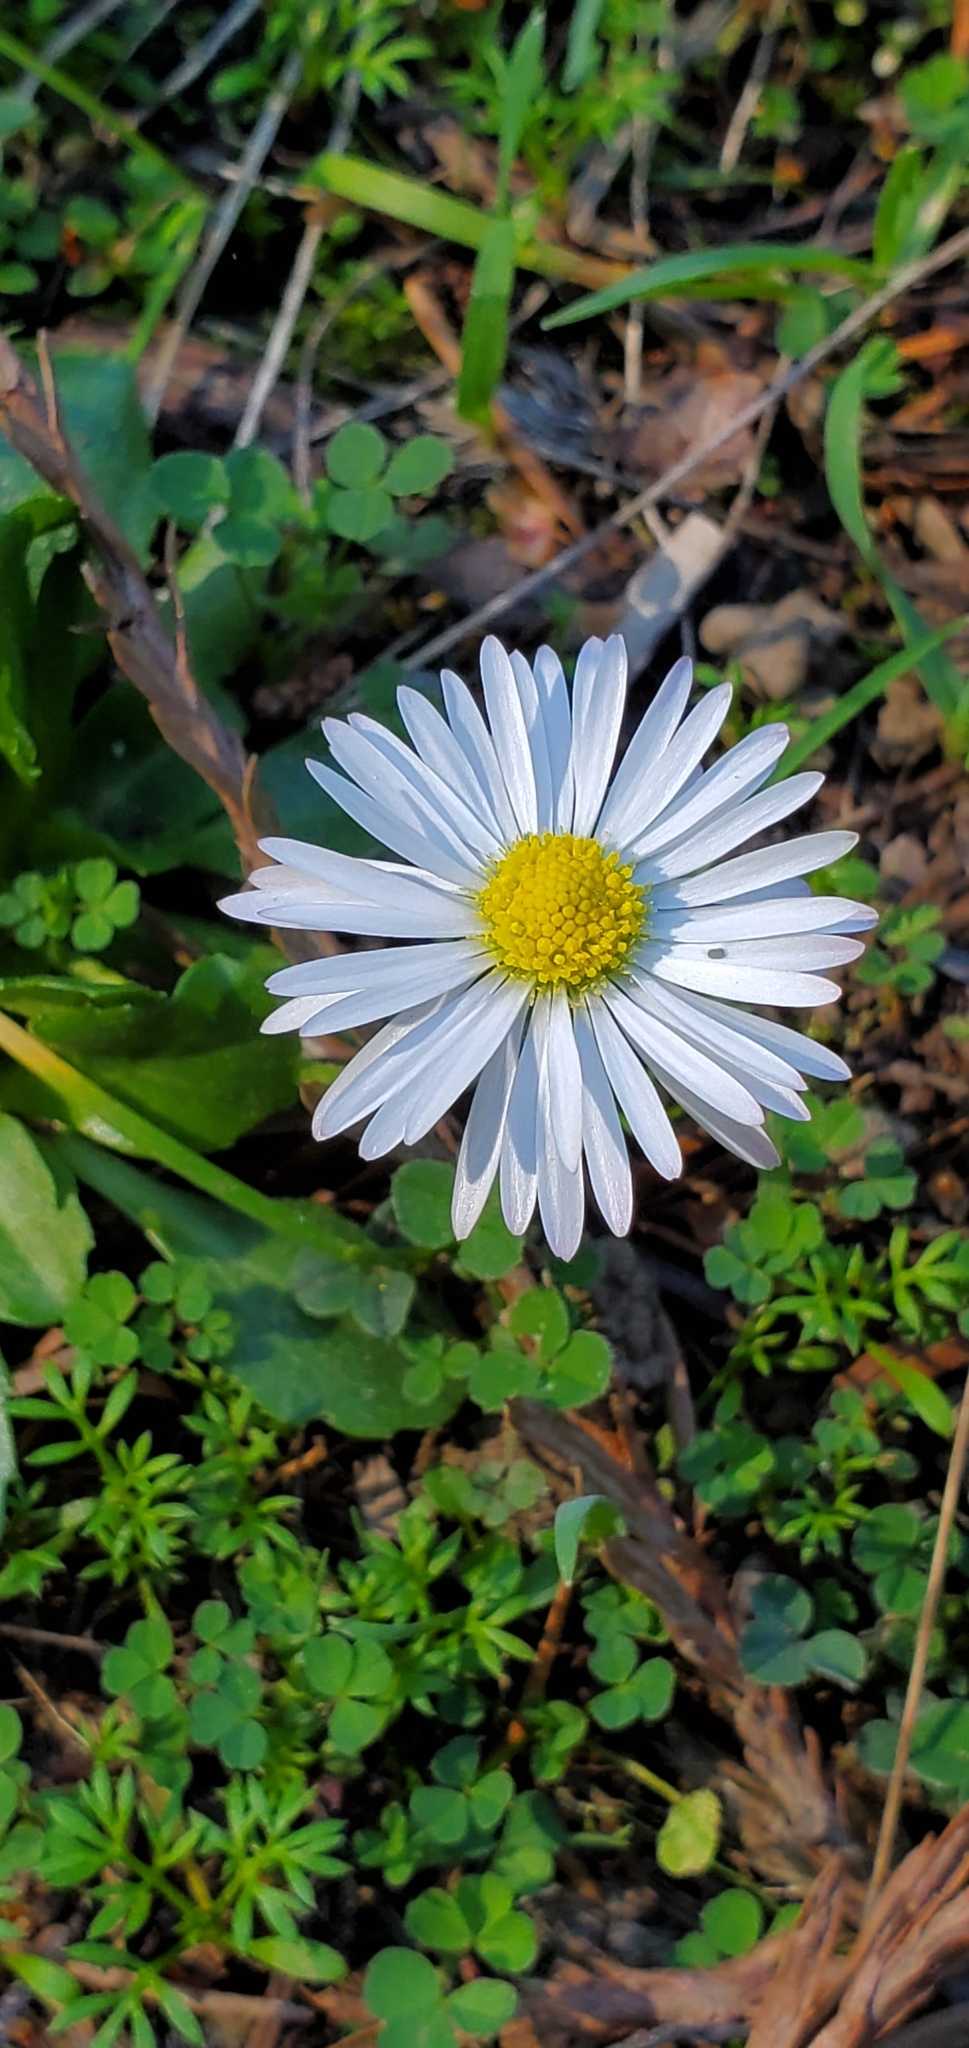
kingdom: Plantae
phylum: Tracheophyta
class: Magnoliopsida
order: Asterales
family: Asteraceae
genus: Bellis
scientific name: Bellis perennis
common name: Lawndaisy
